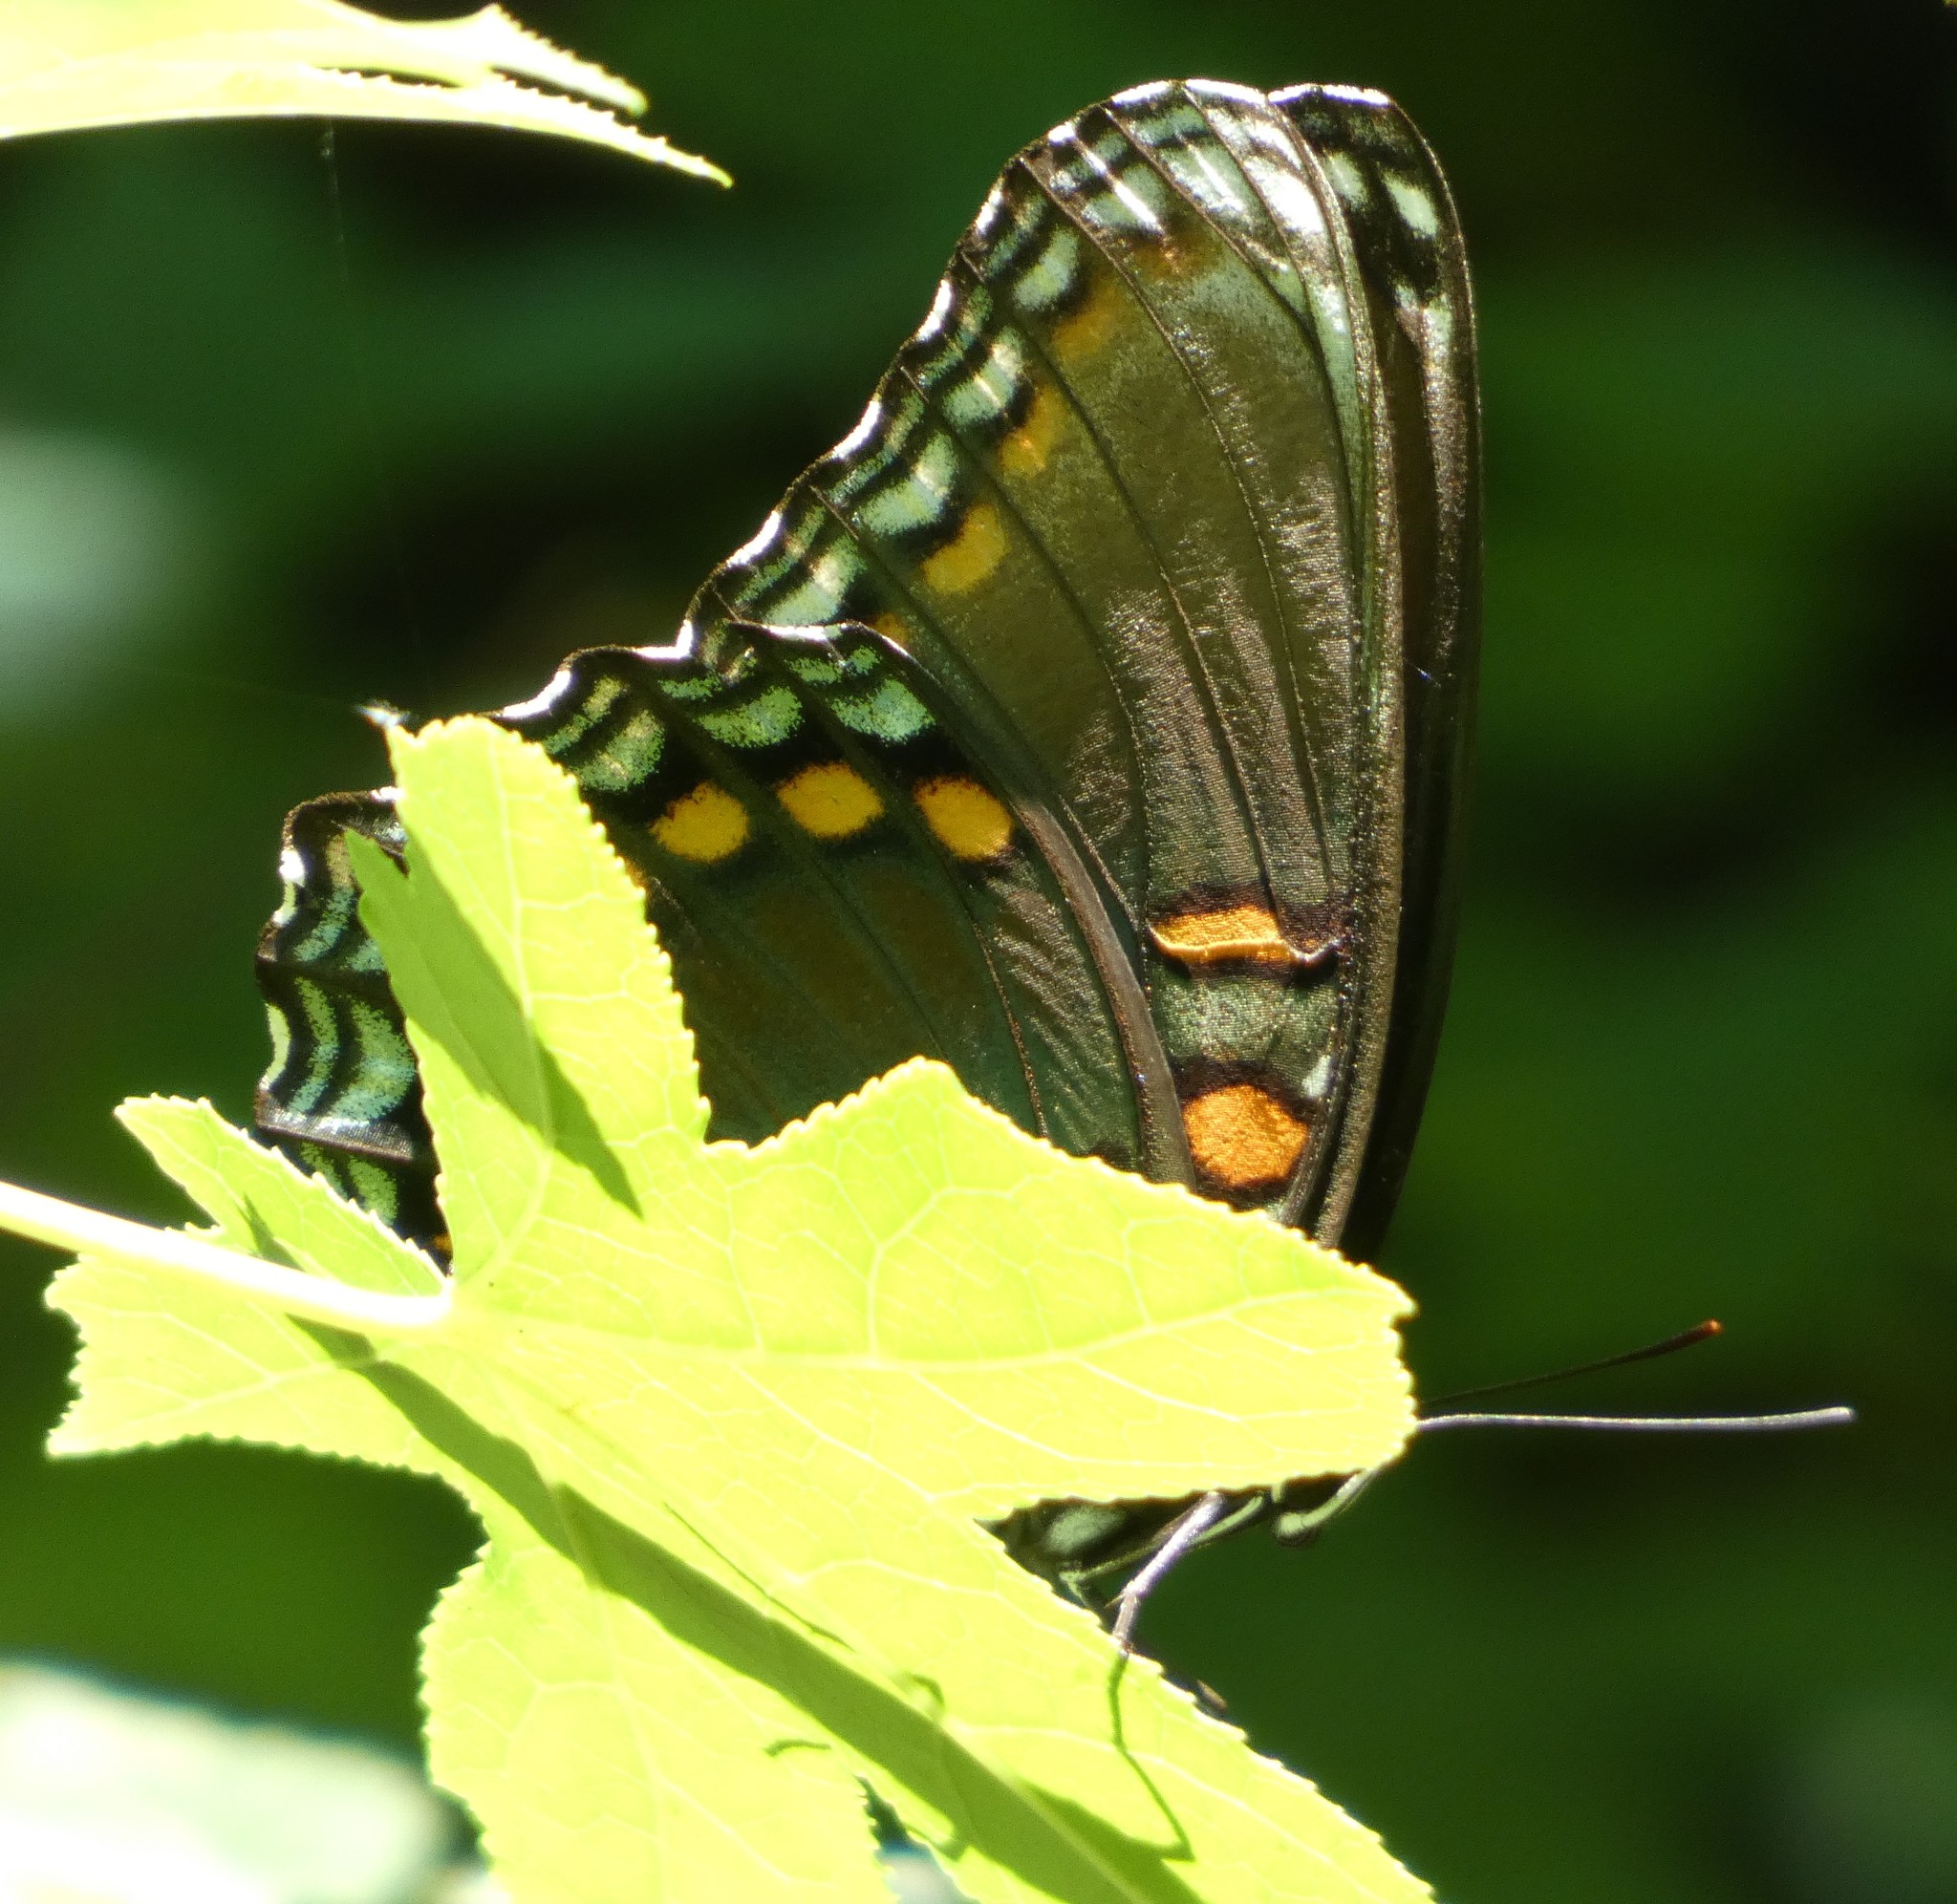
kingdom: Animalia
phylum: Arthropoda
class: Insecta
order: Lepidoptera
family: Nymphalidae
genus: Limenitis
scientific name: Limenitis astyanax
